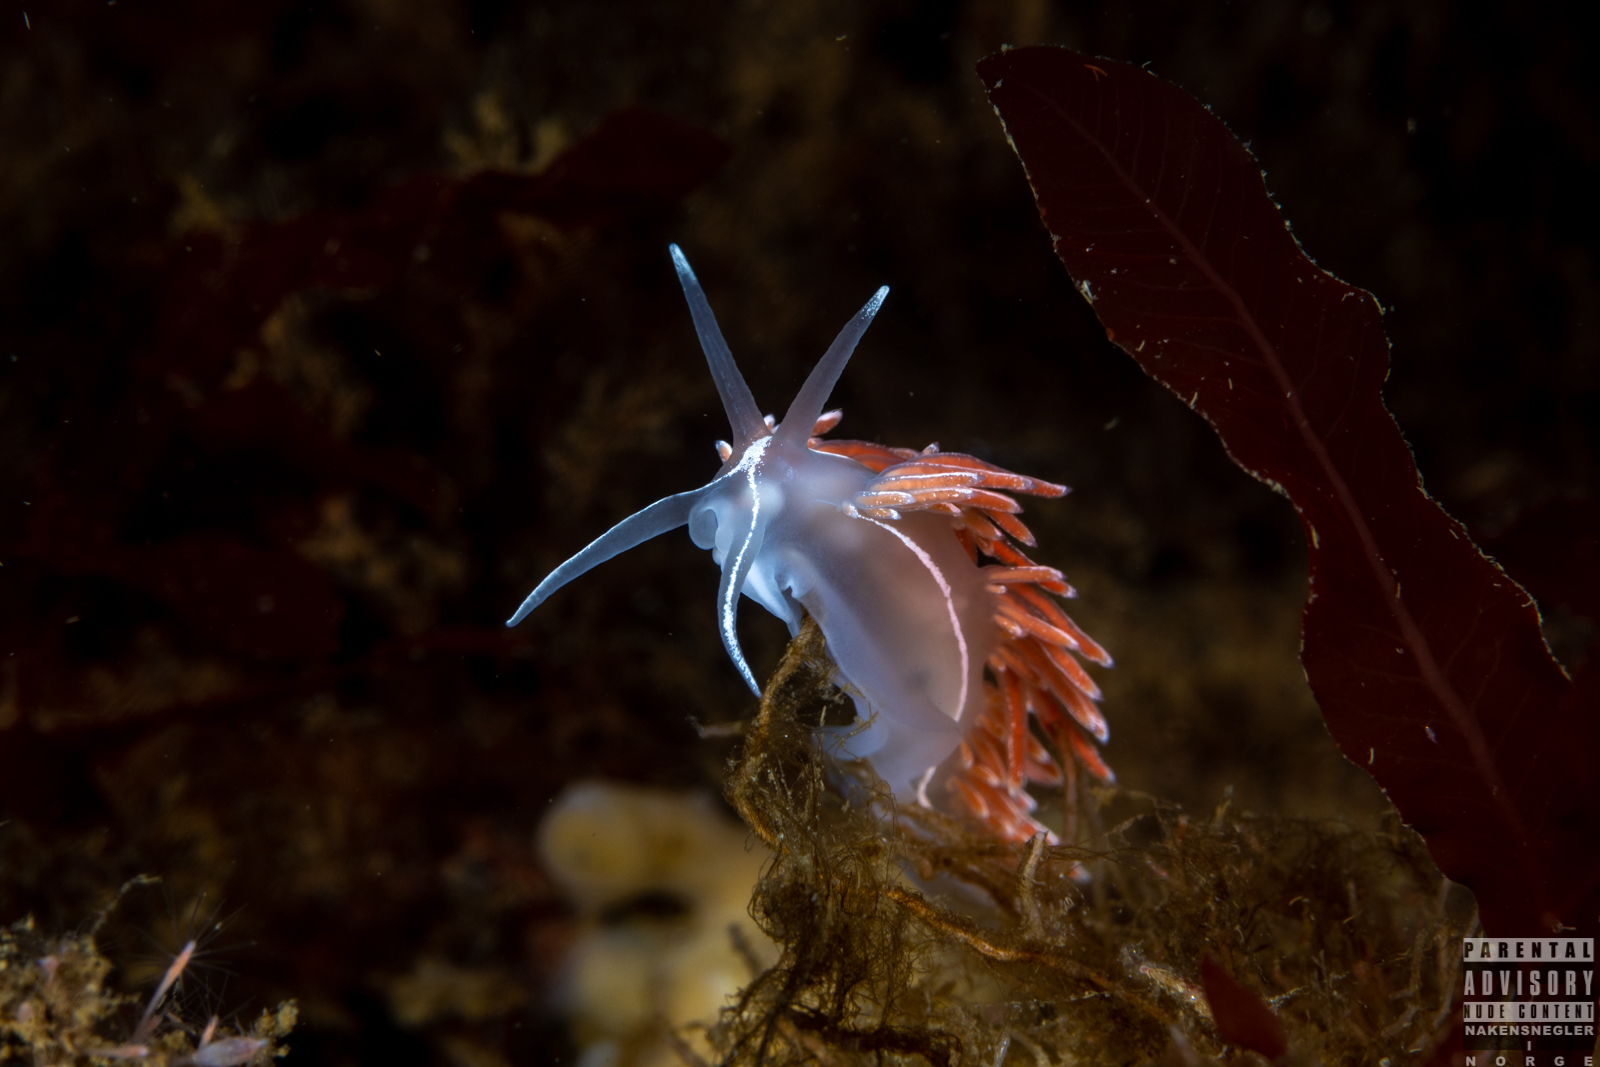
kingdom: Animalia
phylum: Mollusca
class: Gastropoda
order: Nudibranchia
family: Coryphellidae
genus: Coryphella
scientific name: Coryphella lineata
